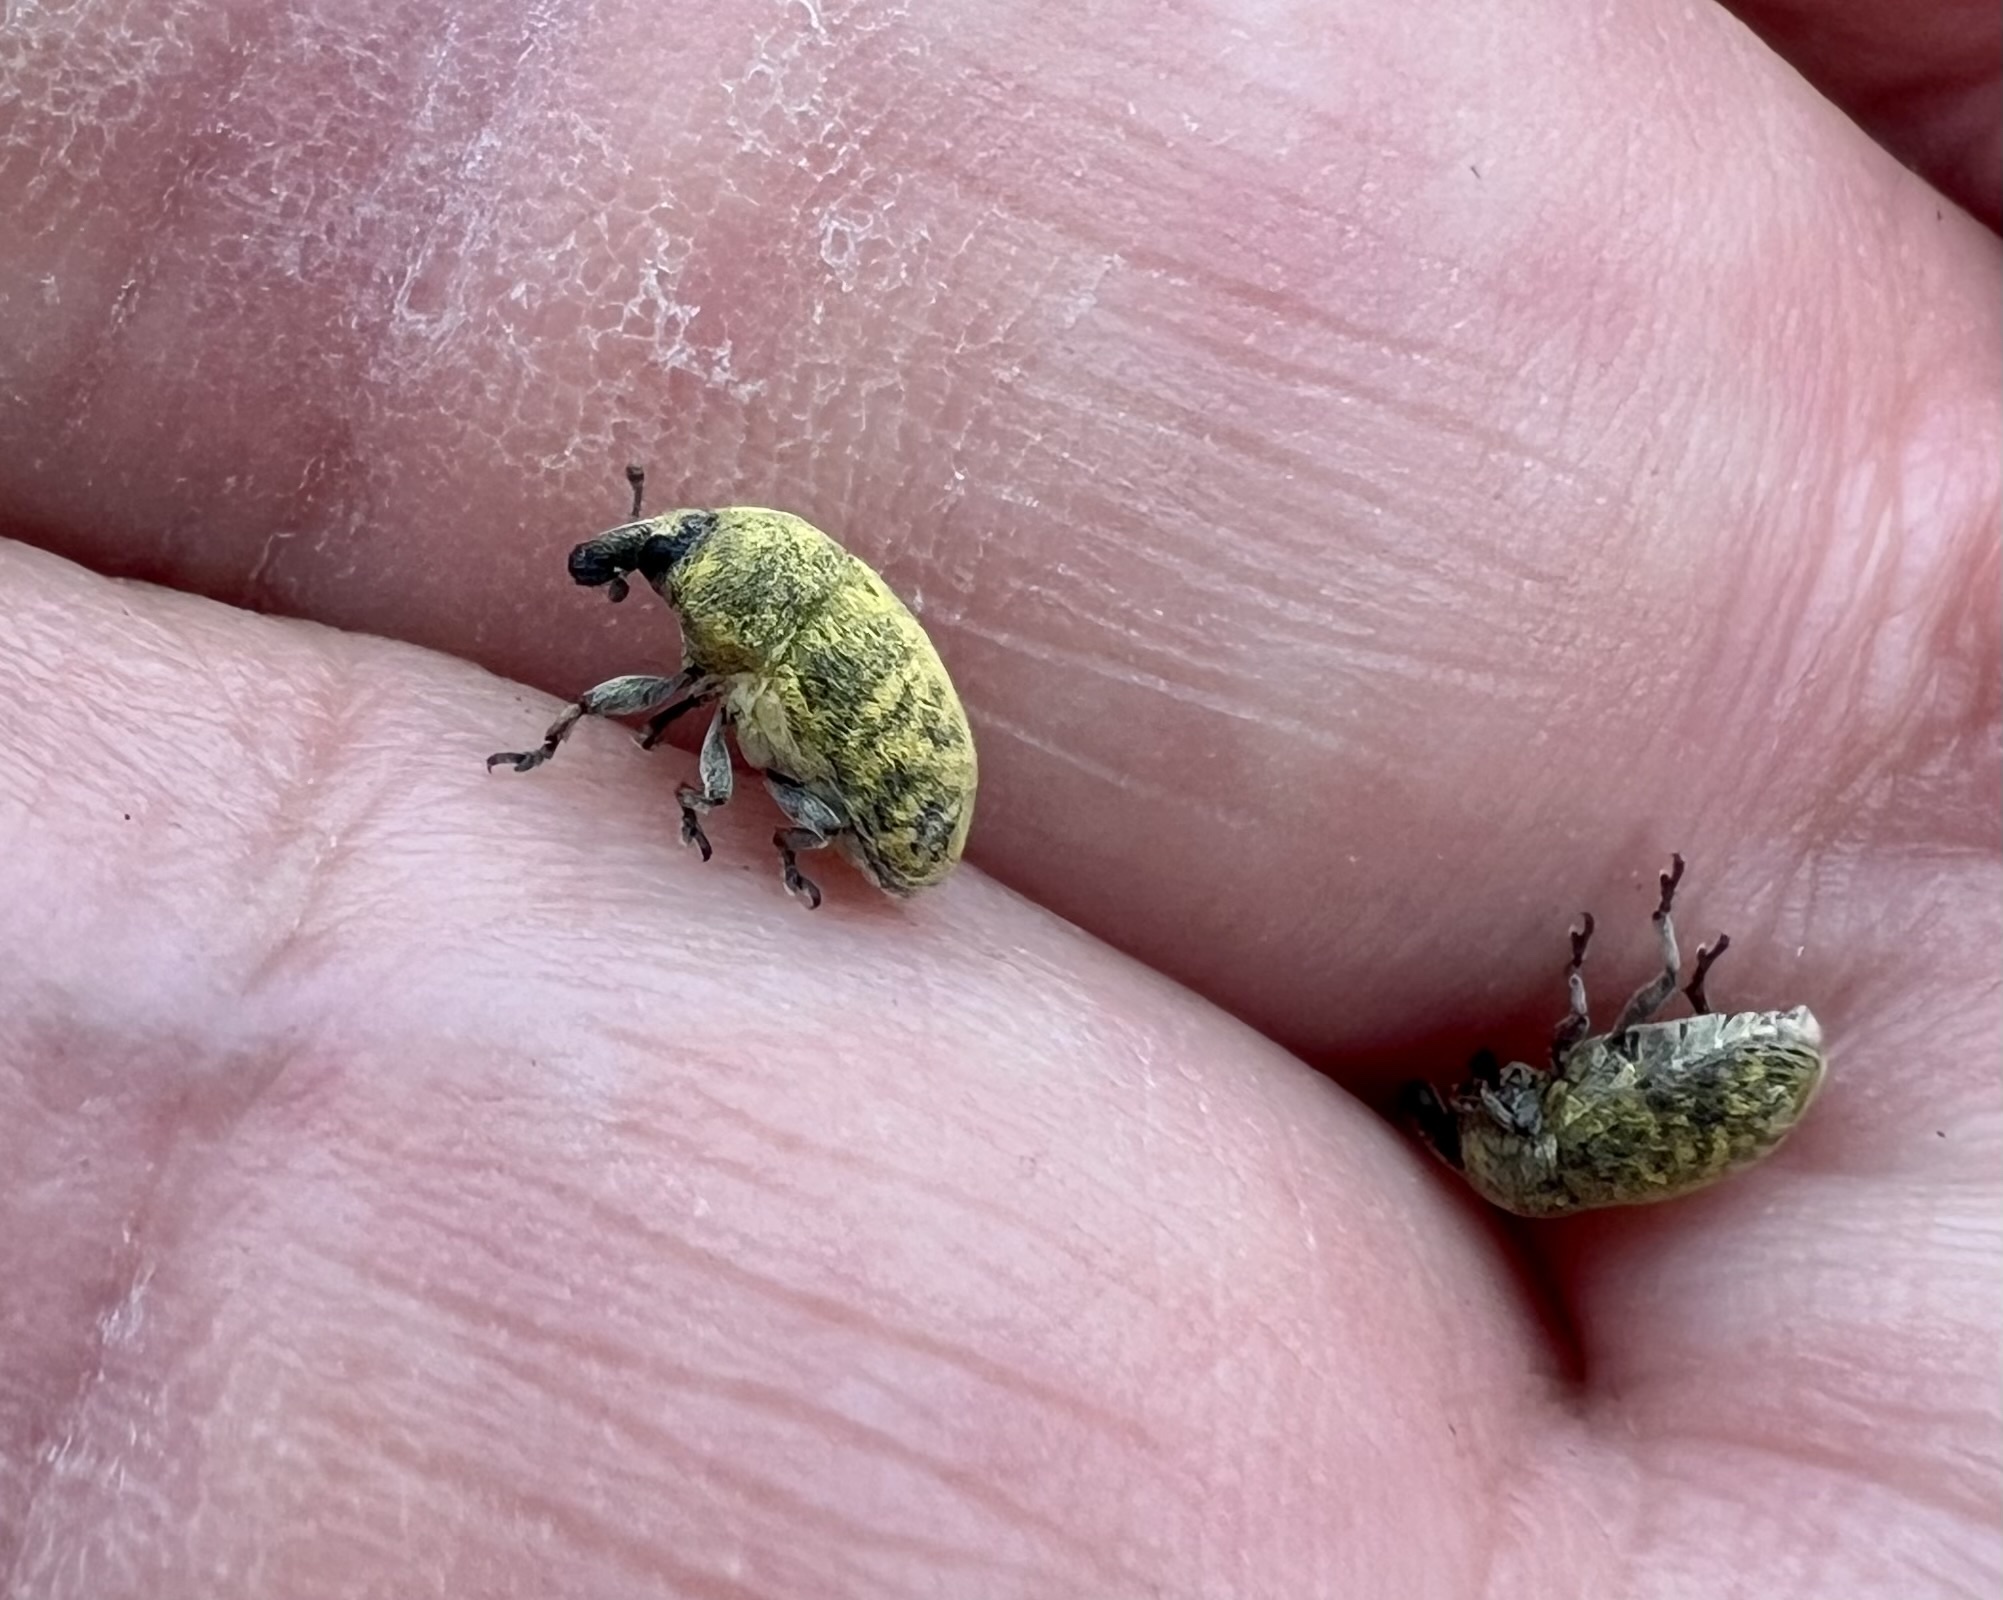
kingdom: Animalia
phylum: Arthropoda
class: Insecta
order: Coleoptera
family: Curculionidae
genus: Larinus
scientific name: Larinus curtus
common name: Weevil
